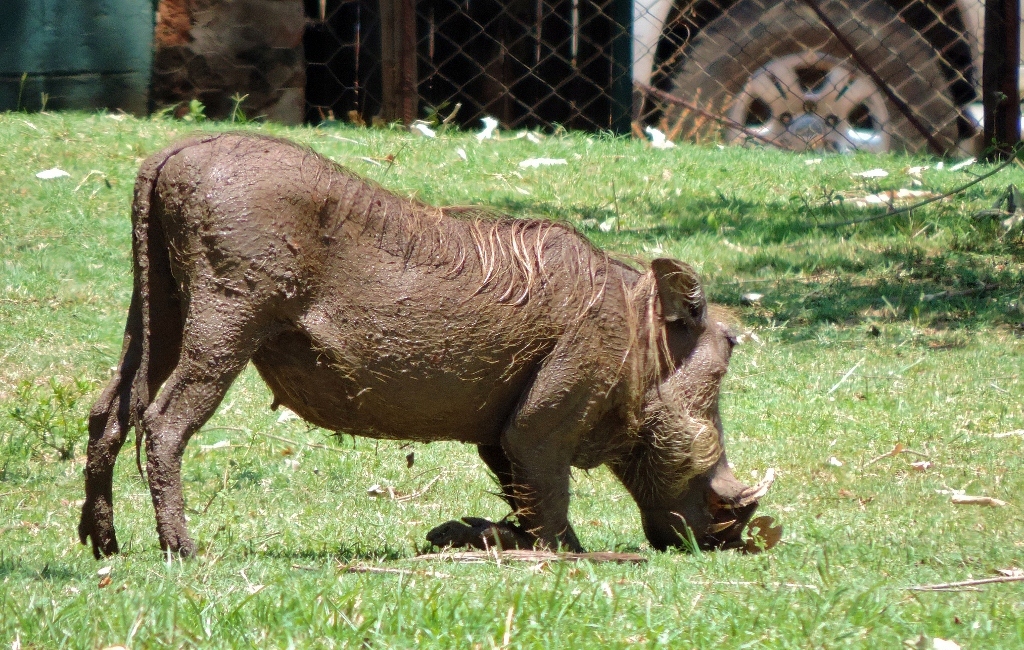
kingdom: Animalia
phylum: Chordata
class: Mammalia
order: Artiodactyla
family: Suidae
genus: Phacochoerus
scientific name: Phacochoerus africanus
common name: Common warthog
